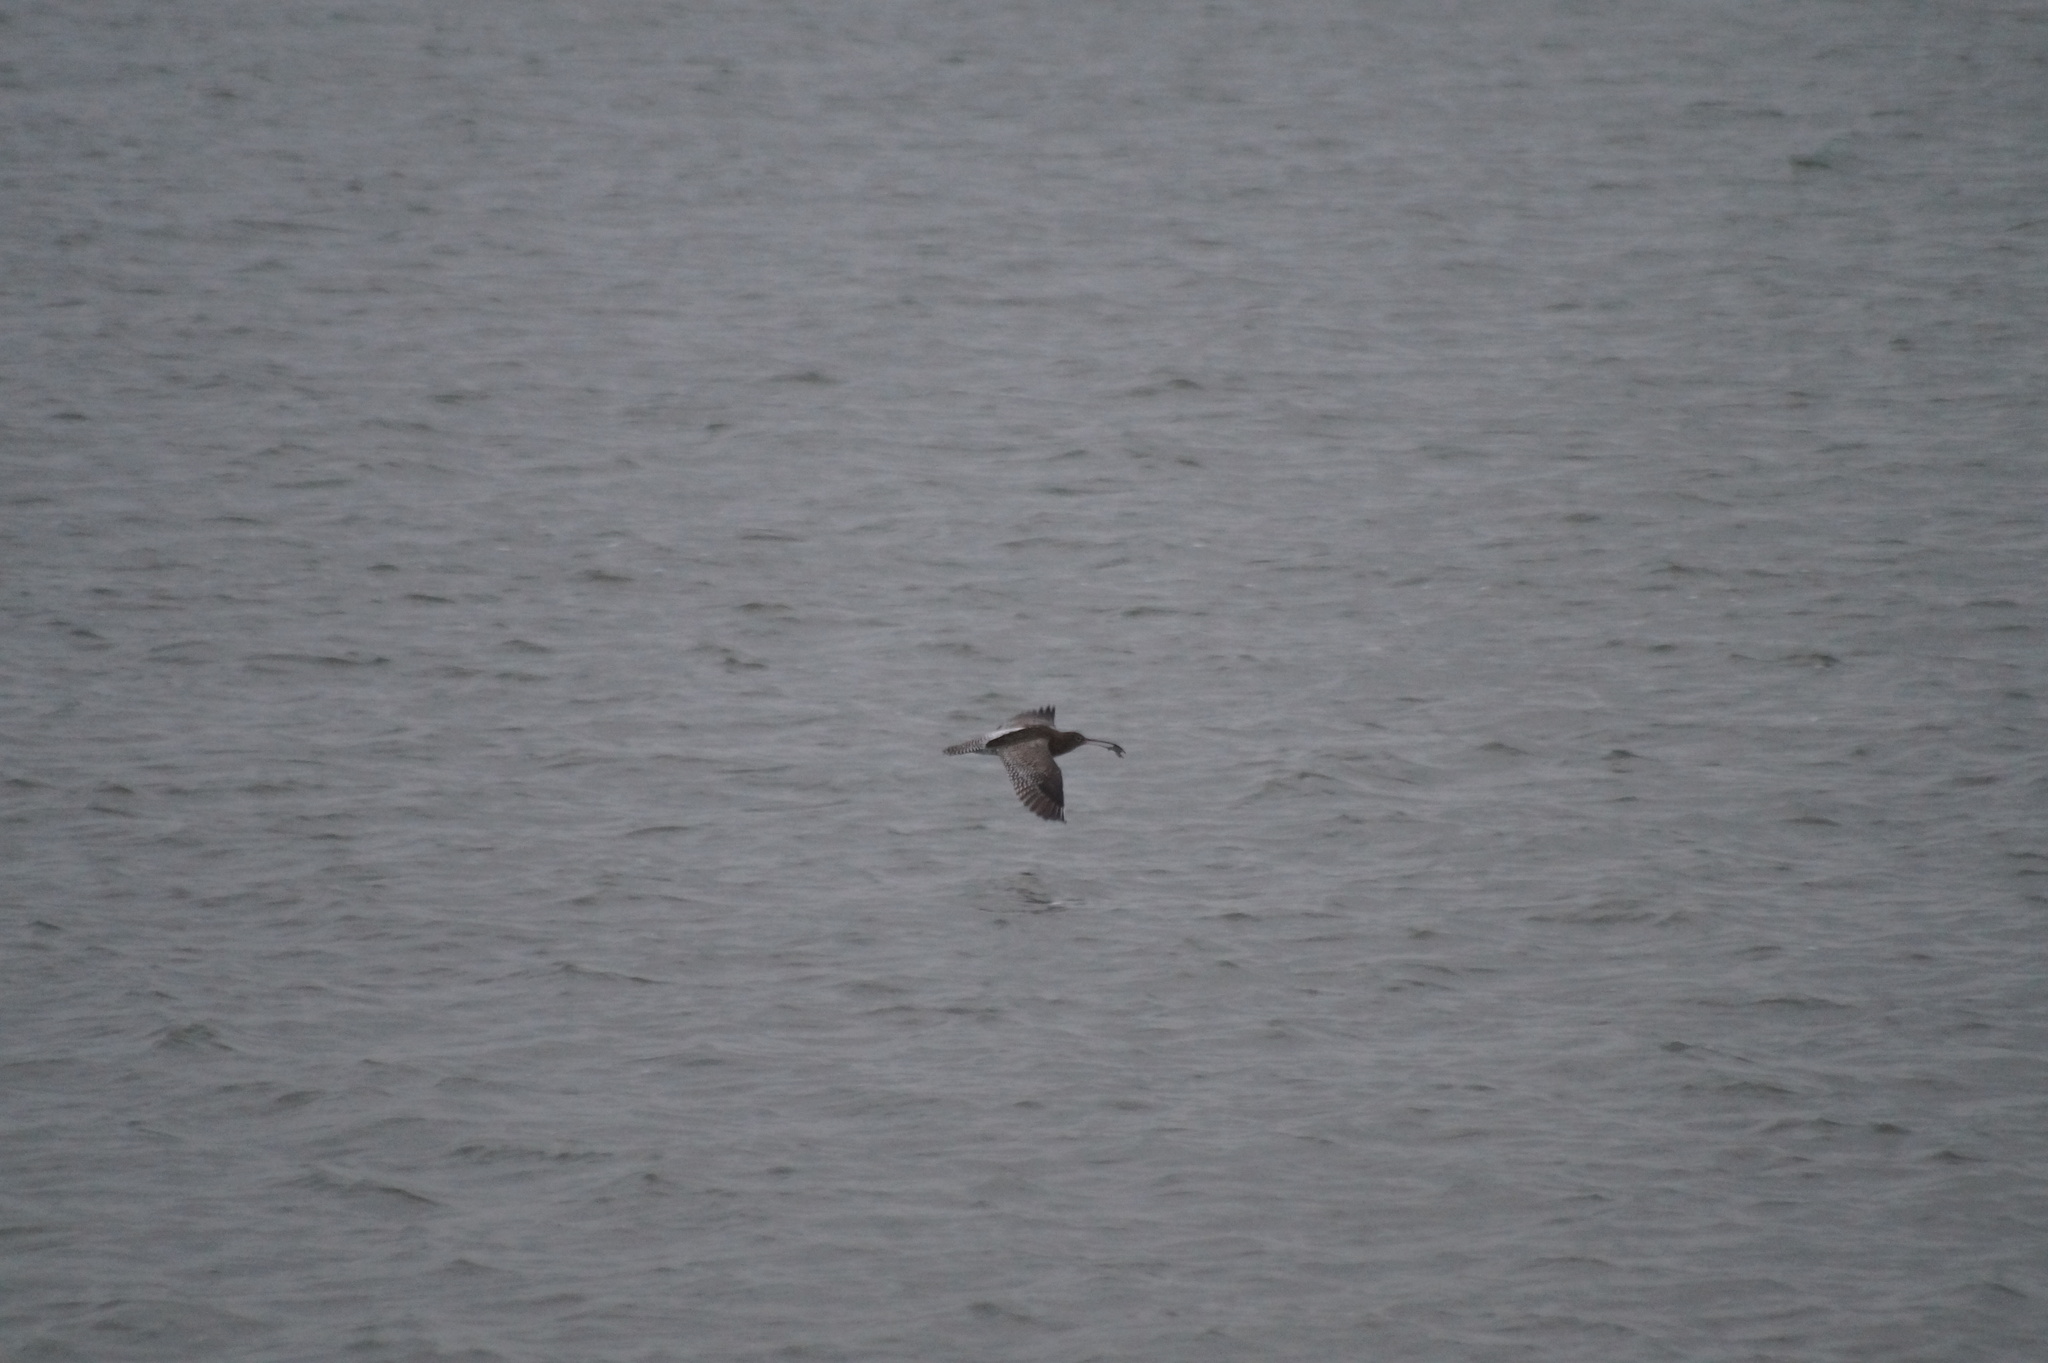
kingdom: Animalia
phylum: Chordata
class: Aves
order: Charadriiformes
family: Scolopacidae
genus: Numenius
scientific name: Numenius arquata
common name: Eurasian curlew
